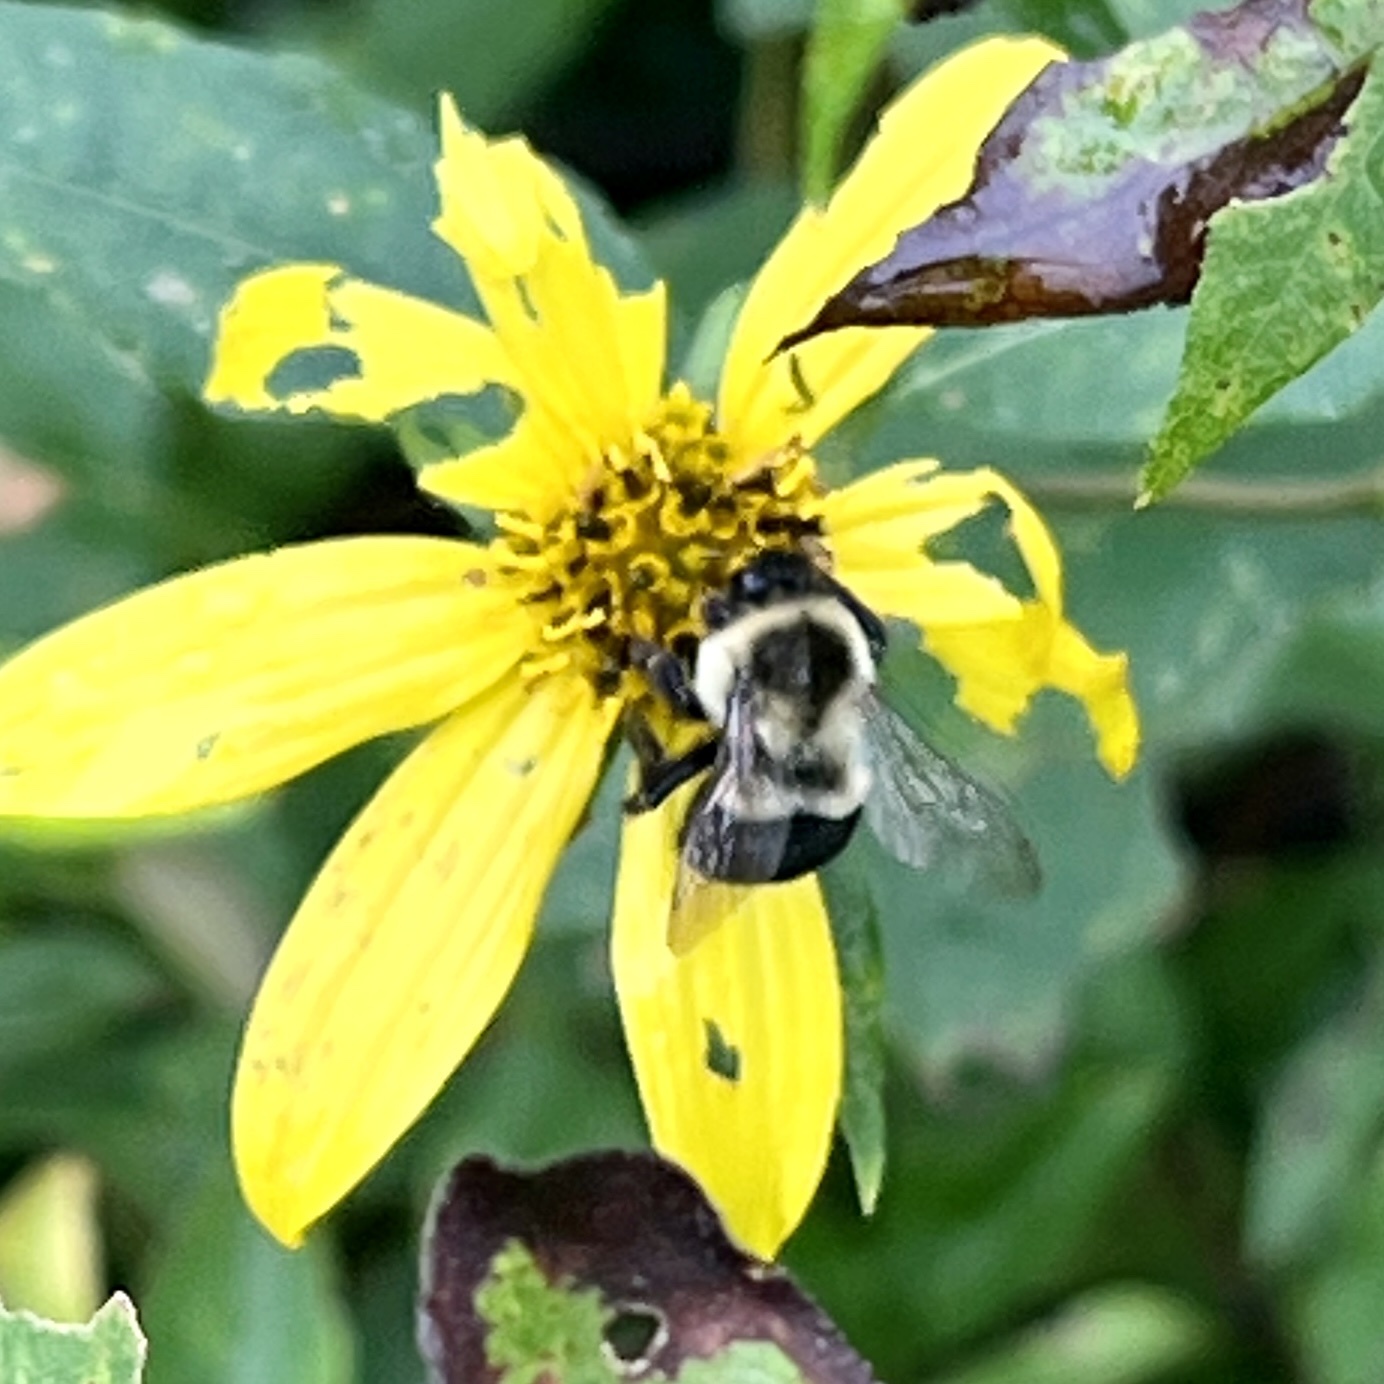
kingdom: Animalia
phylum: Arthropoda
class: Insecta
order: Hymenoptera
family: Apidae
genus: Bombus
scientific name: Bombus impatiens
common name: Common eastern bumble bee
